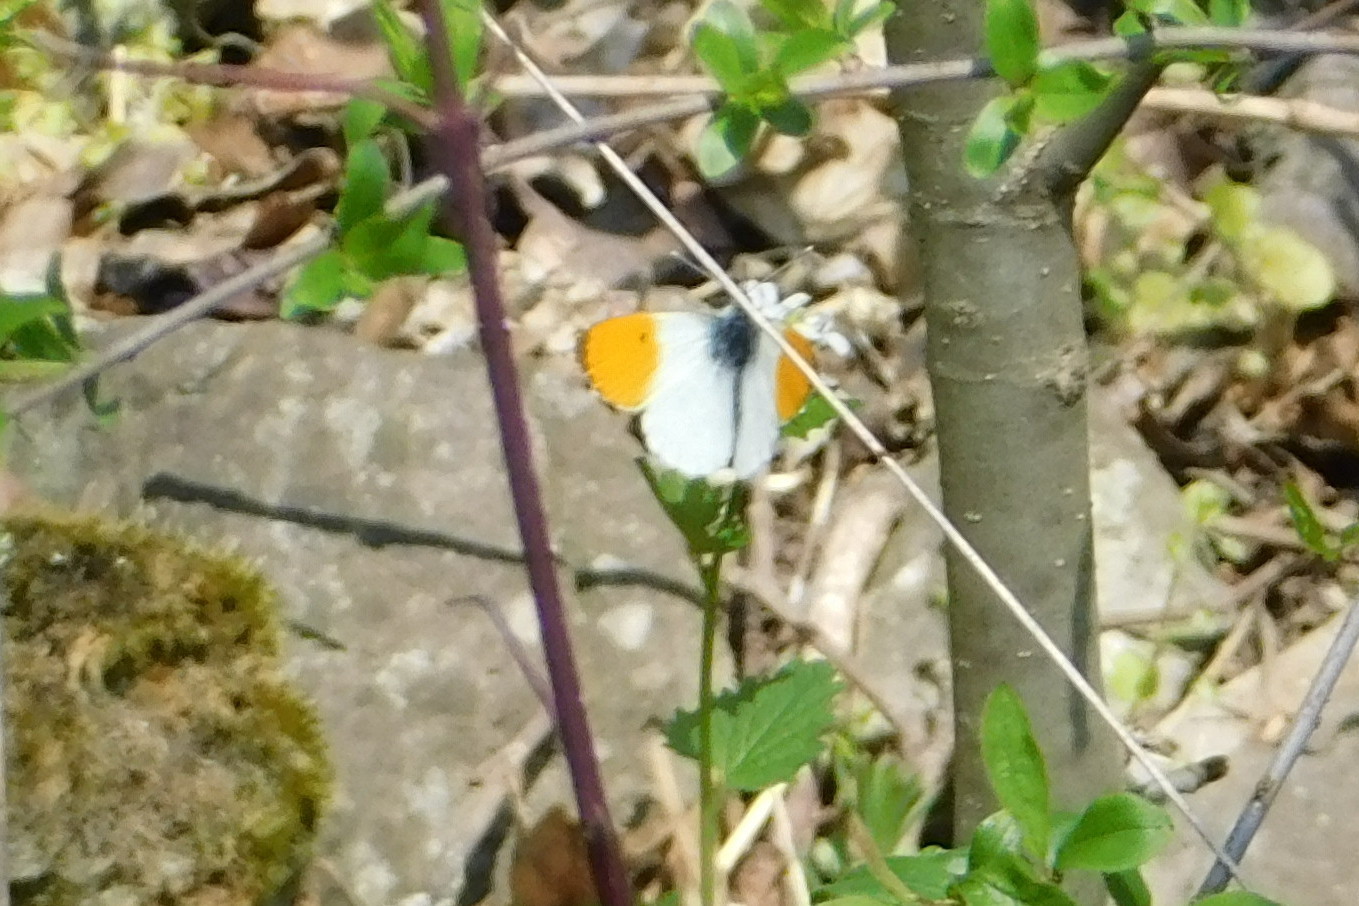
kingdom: Animalia
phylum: Arthropoda
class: Insecta
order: Lepidoptera
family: Pieridae
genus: Anthocharis
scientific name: Anthocharis cardamines
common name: Orange-tip
